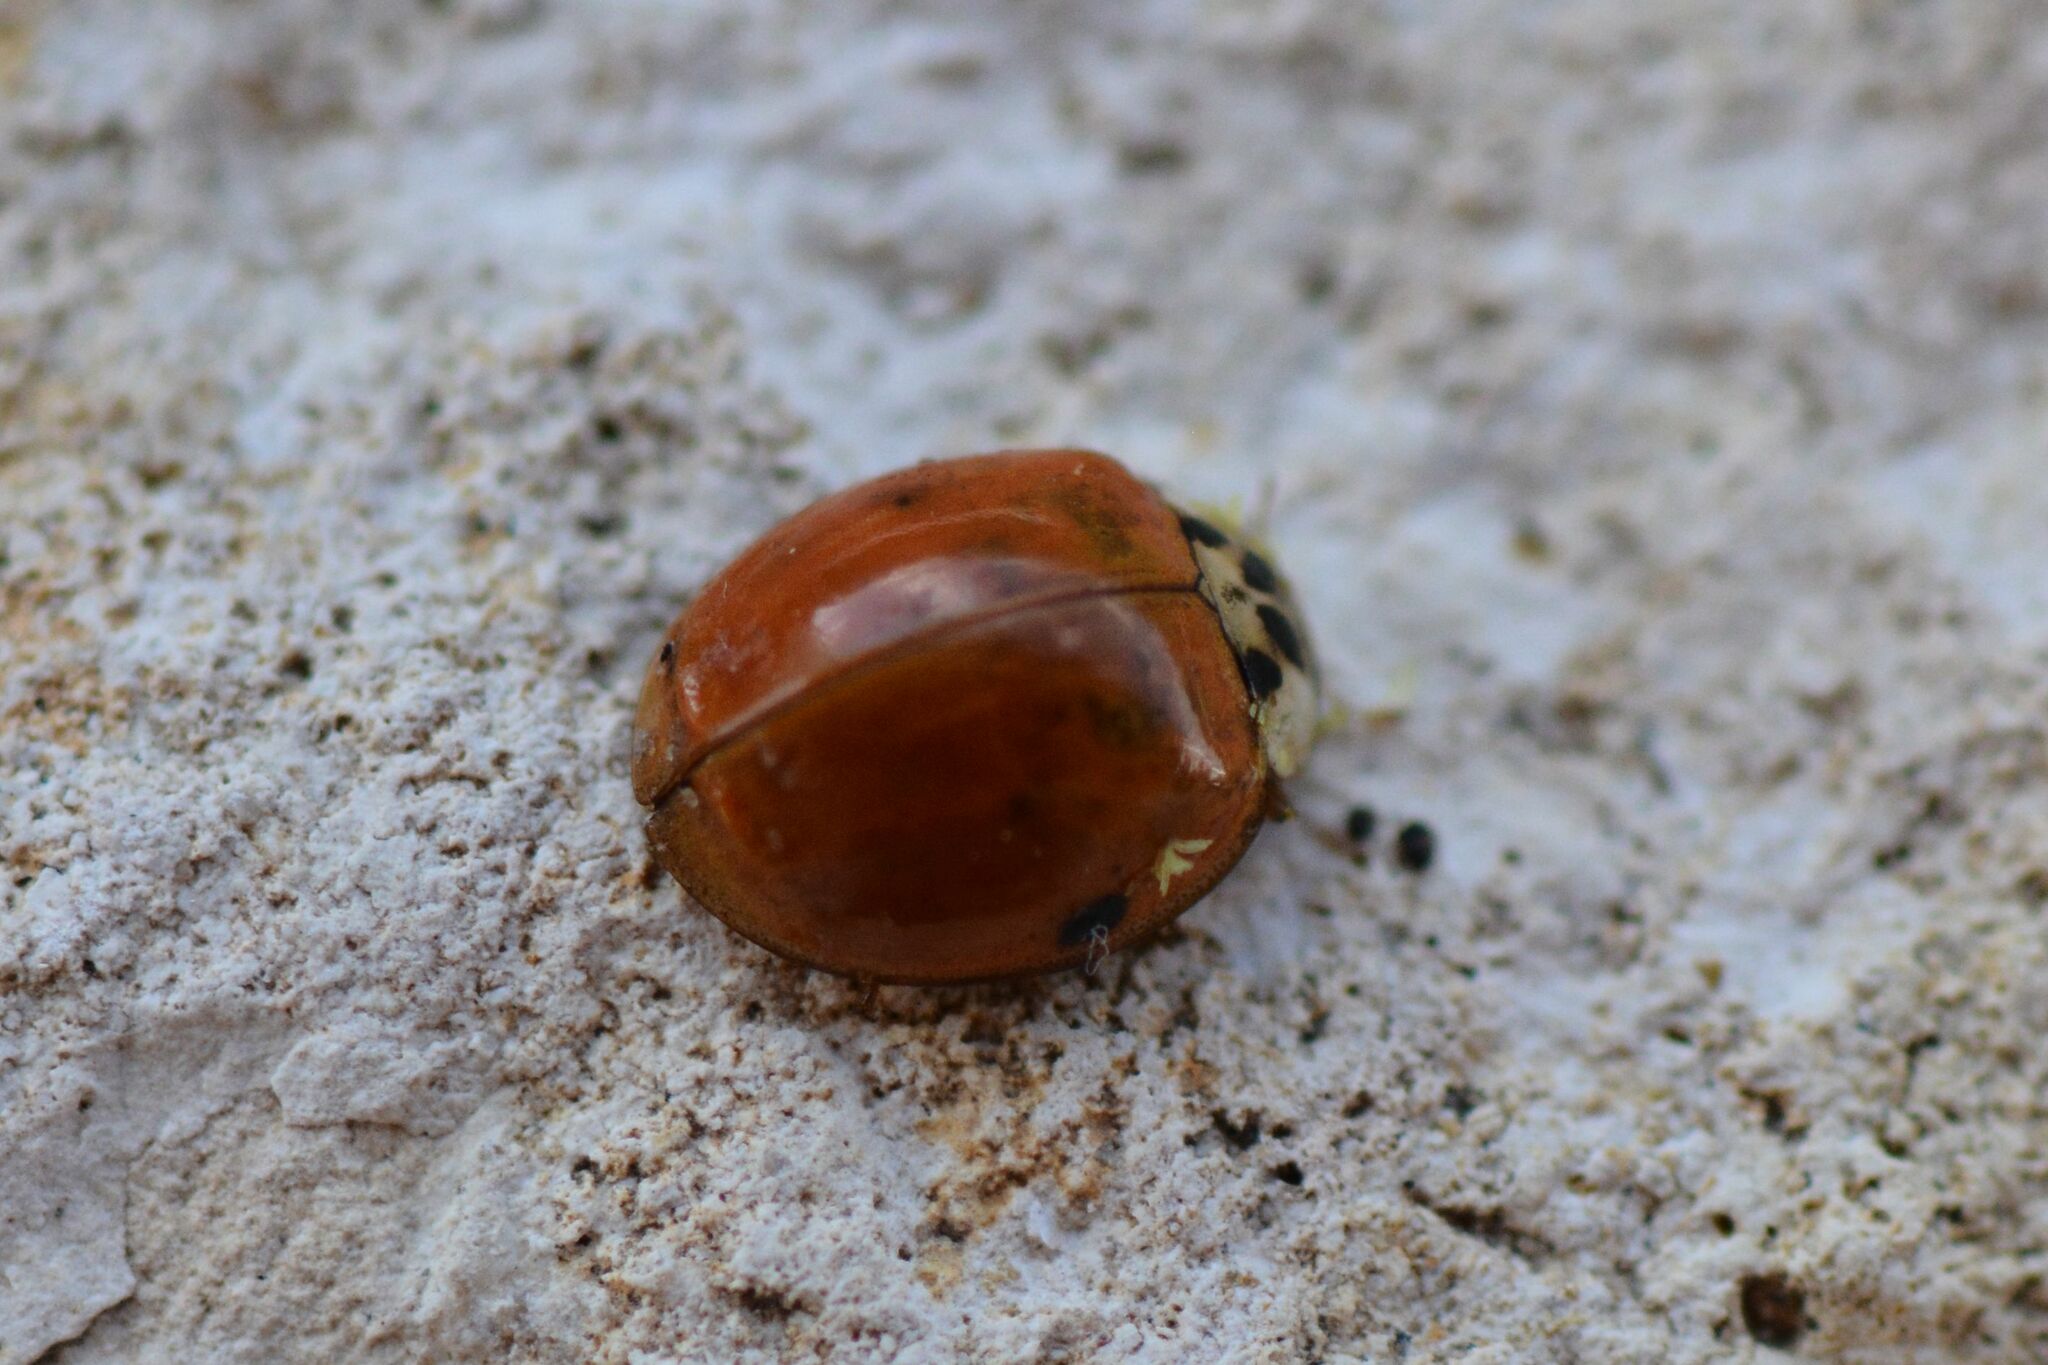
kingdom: Animalia
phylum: Arthropoda
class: Insecta
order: Coleoptera
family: Coccinellidae
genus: Harmonia
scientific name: Harmonia axyridis
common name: Harlequin ladybird
